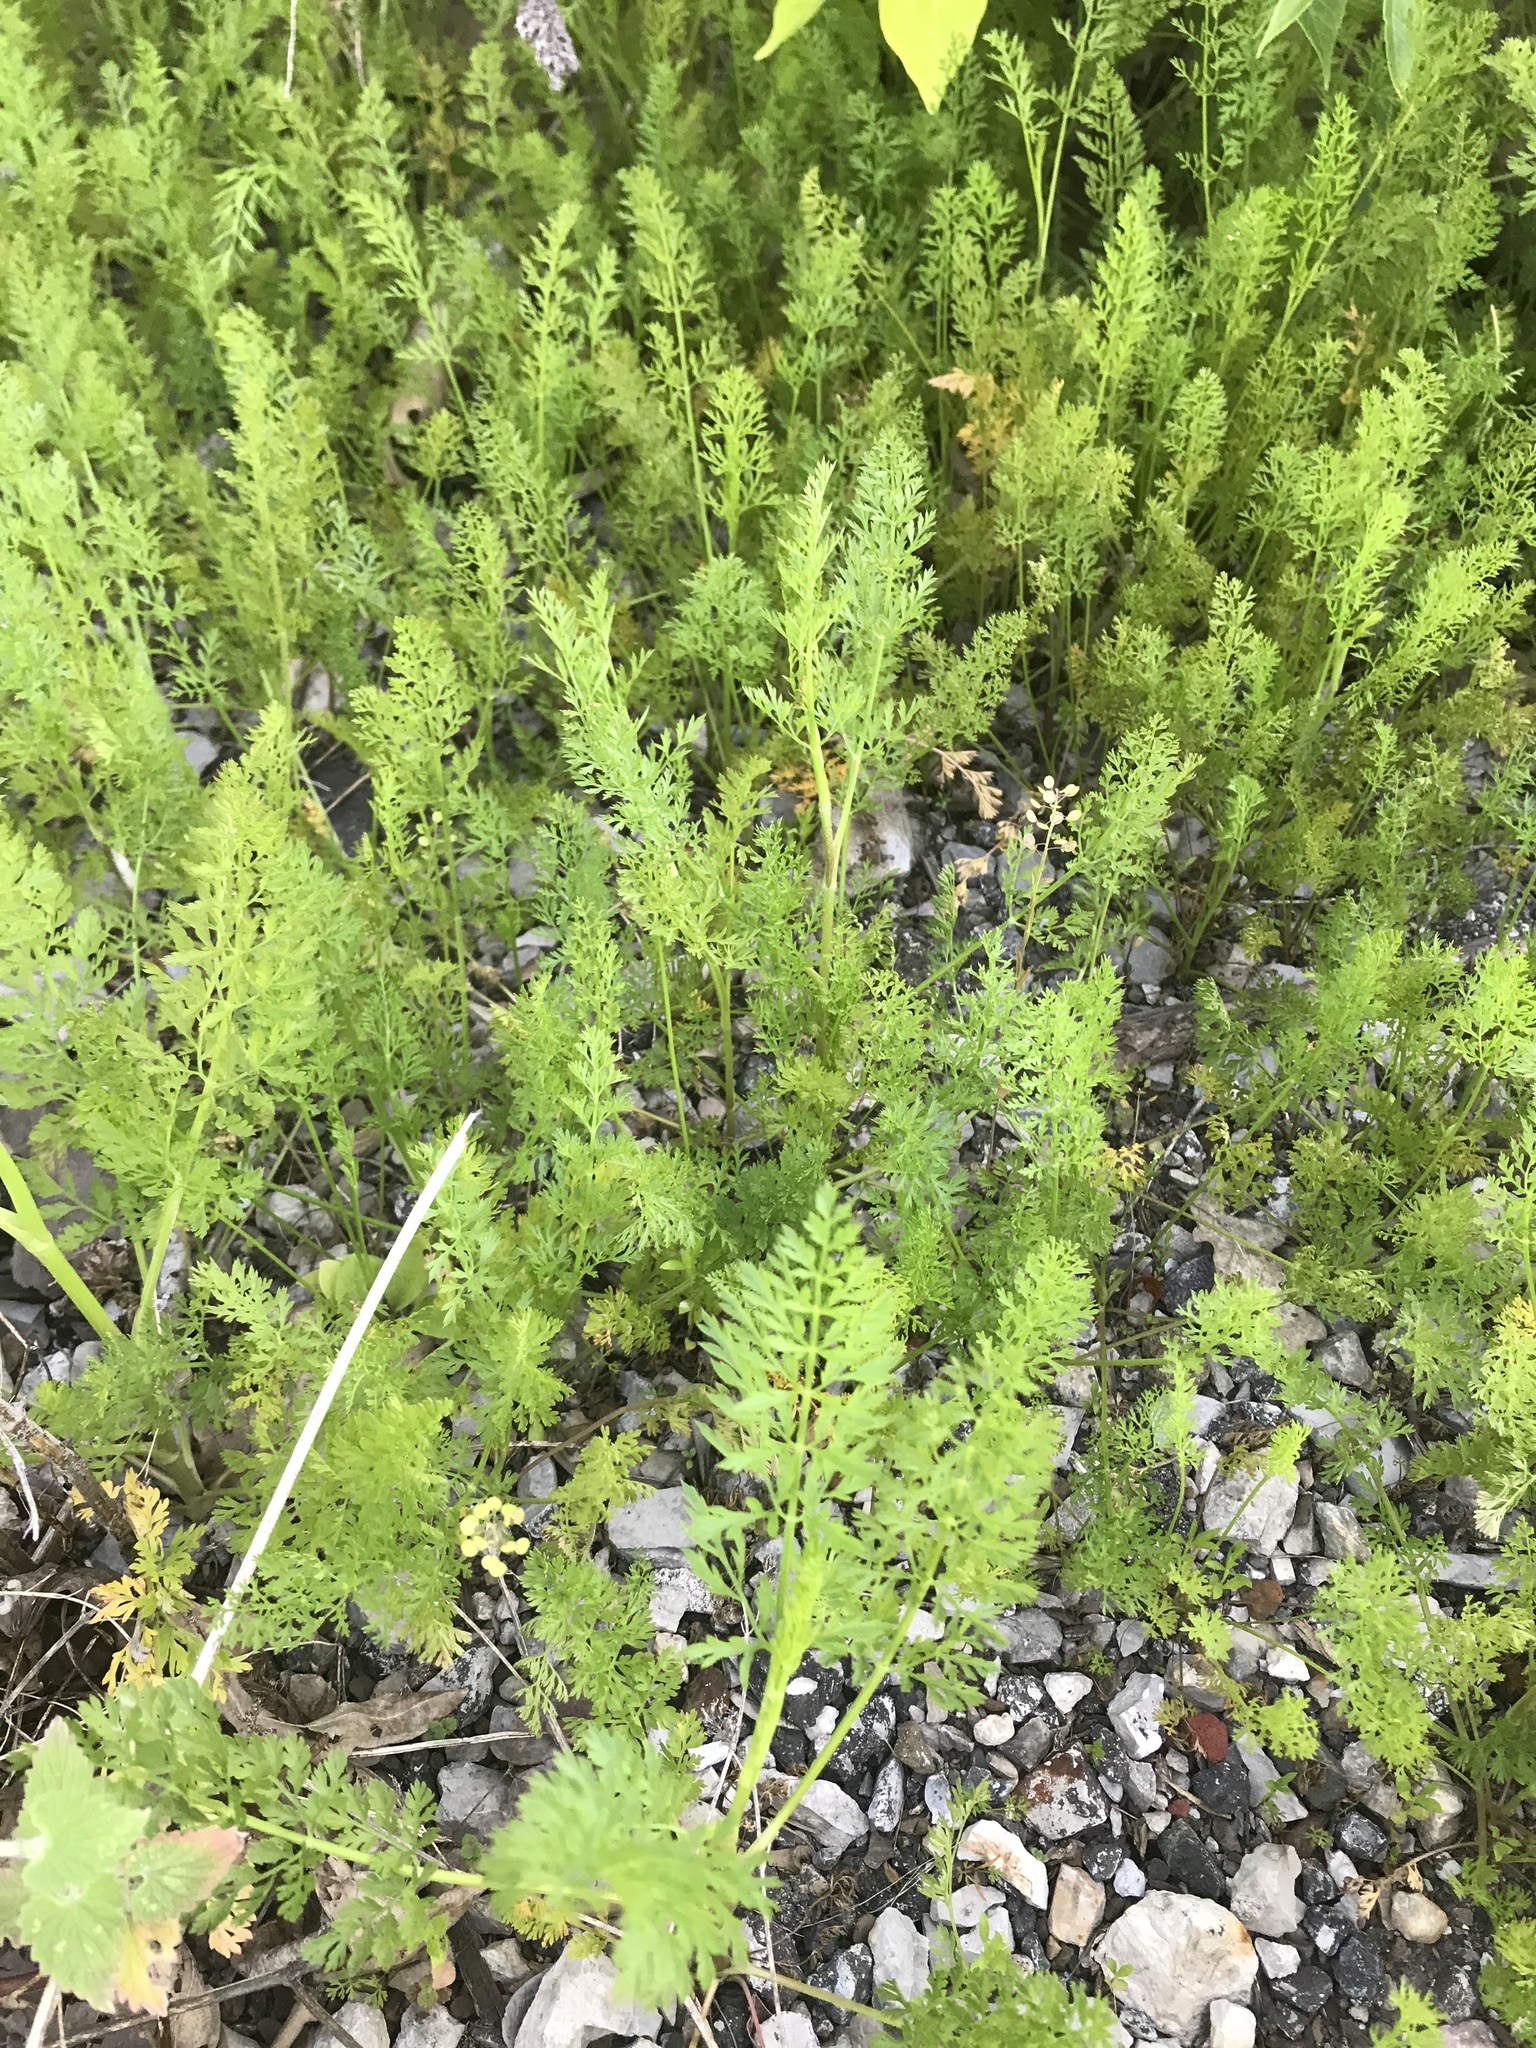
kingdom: Plantae
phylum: Tracheophyta
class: Magnoliopsida
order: Apiales
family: Apiaceae
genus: Daucus
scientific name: Daucus carota
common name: Wild carrot
